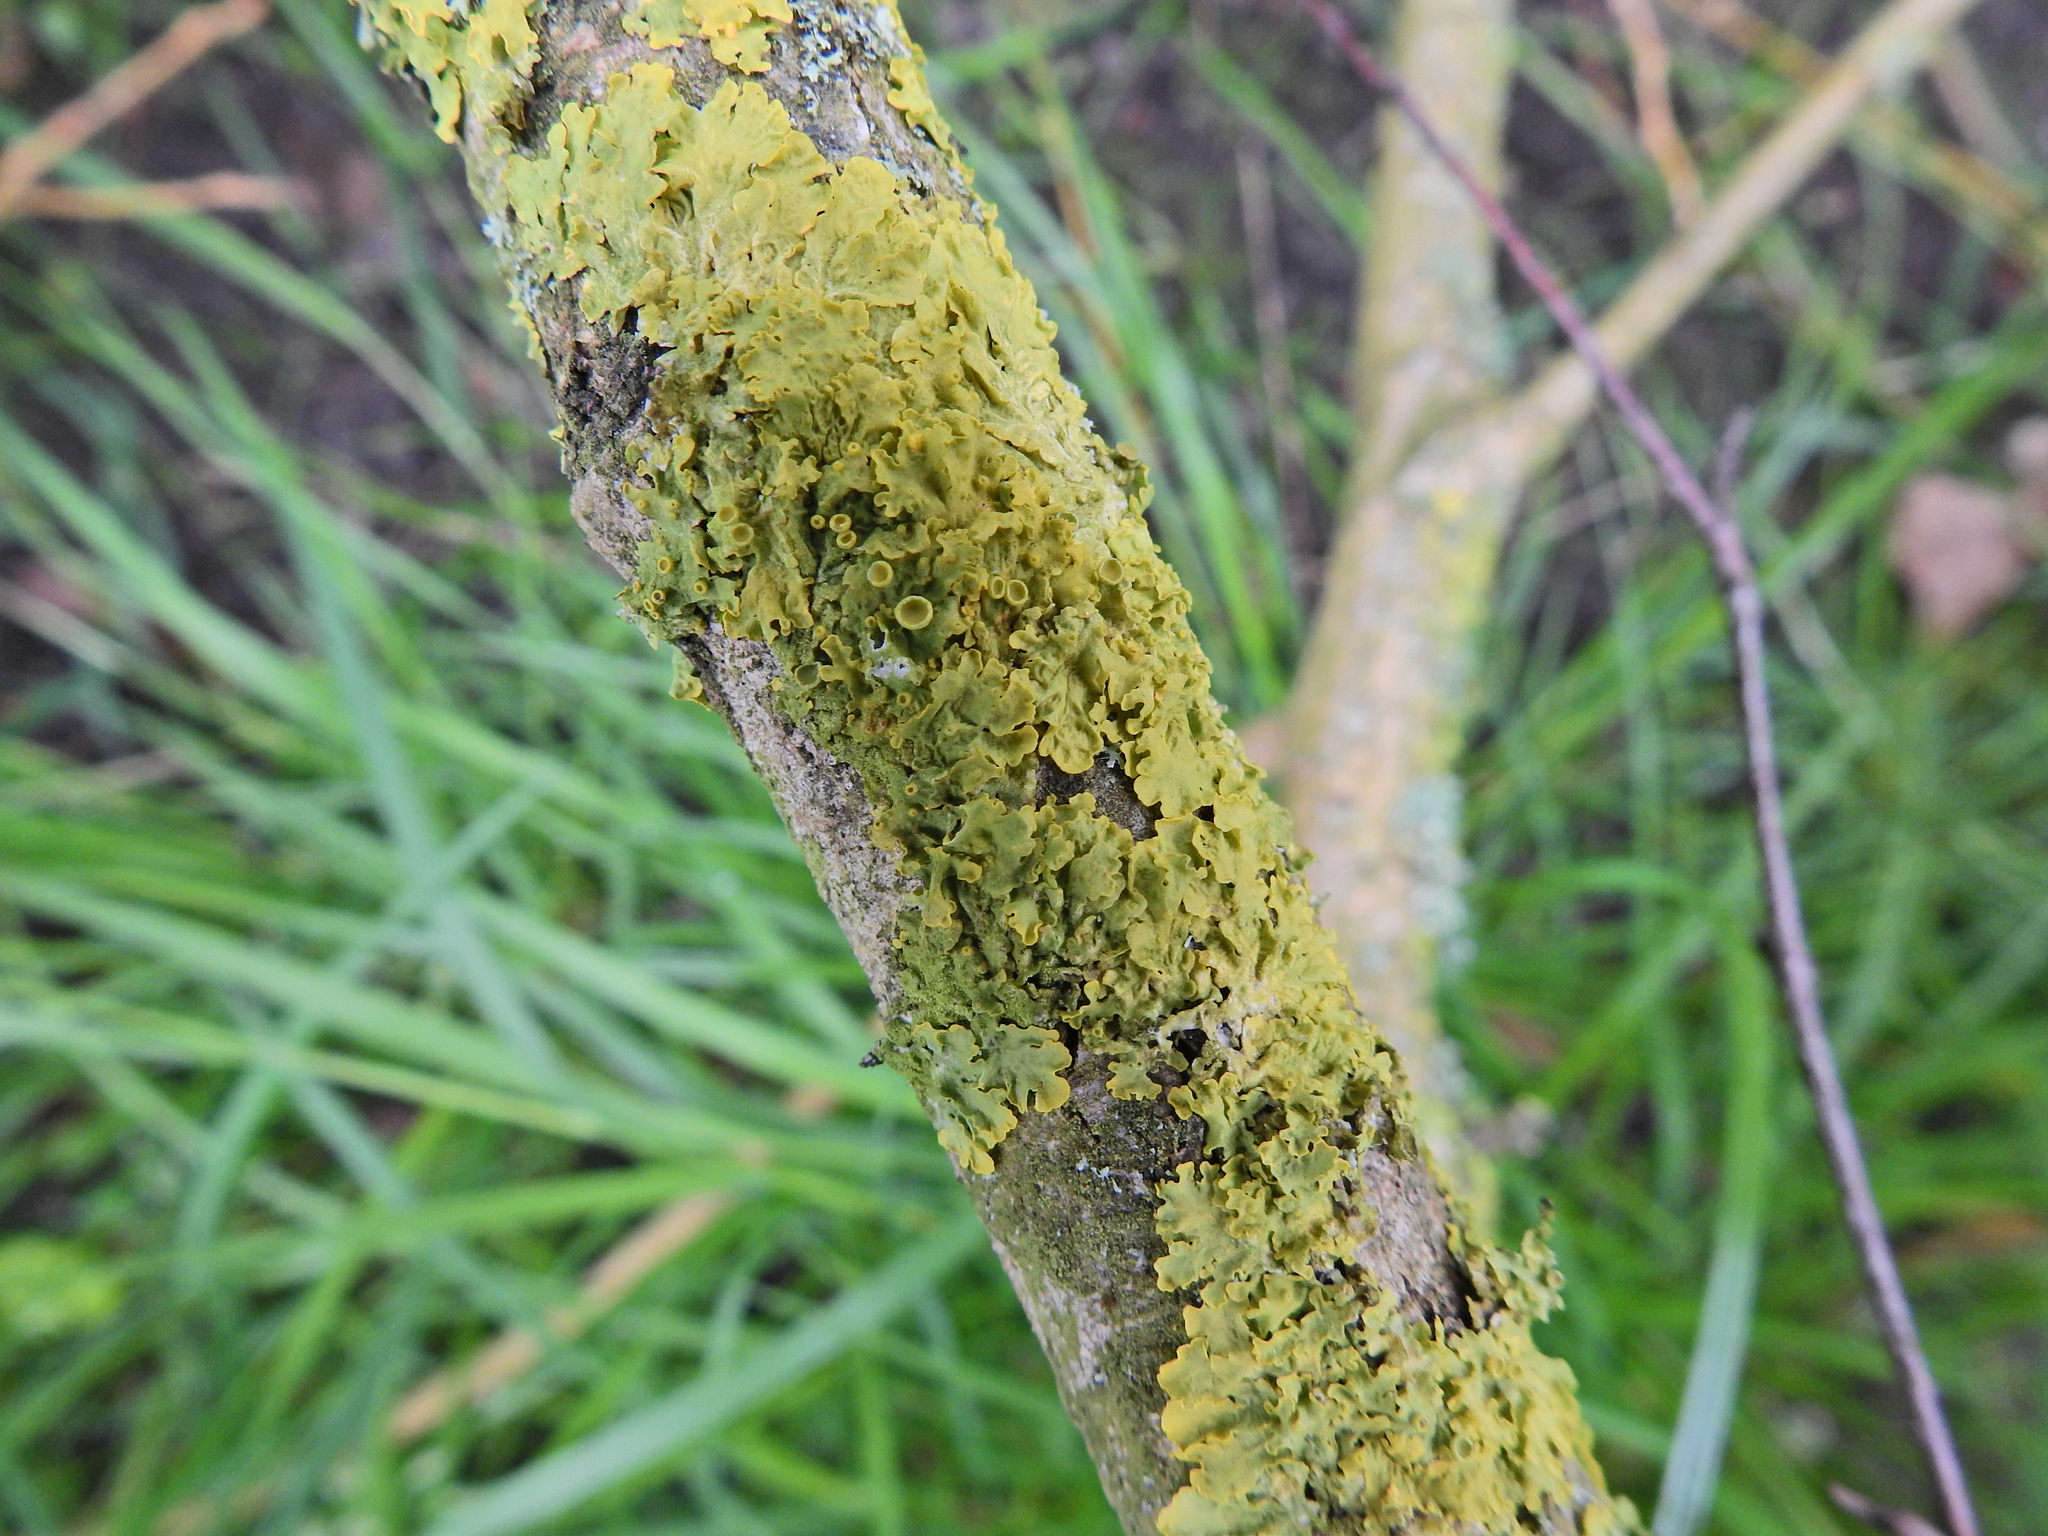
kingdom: Fungi
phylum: Ascomycota
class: Lecanoromycetes
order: Teloschistales
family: Teloschistaceae
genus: Xanthoria
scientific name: Xanthoria parietina
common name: Common orange lichen
